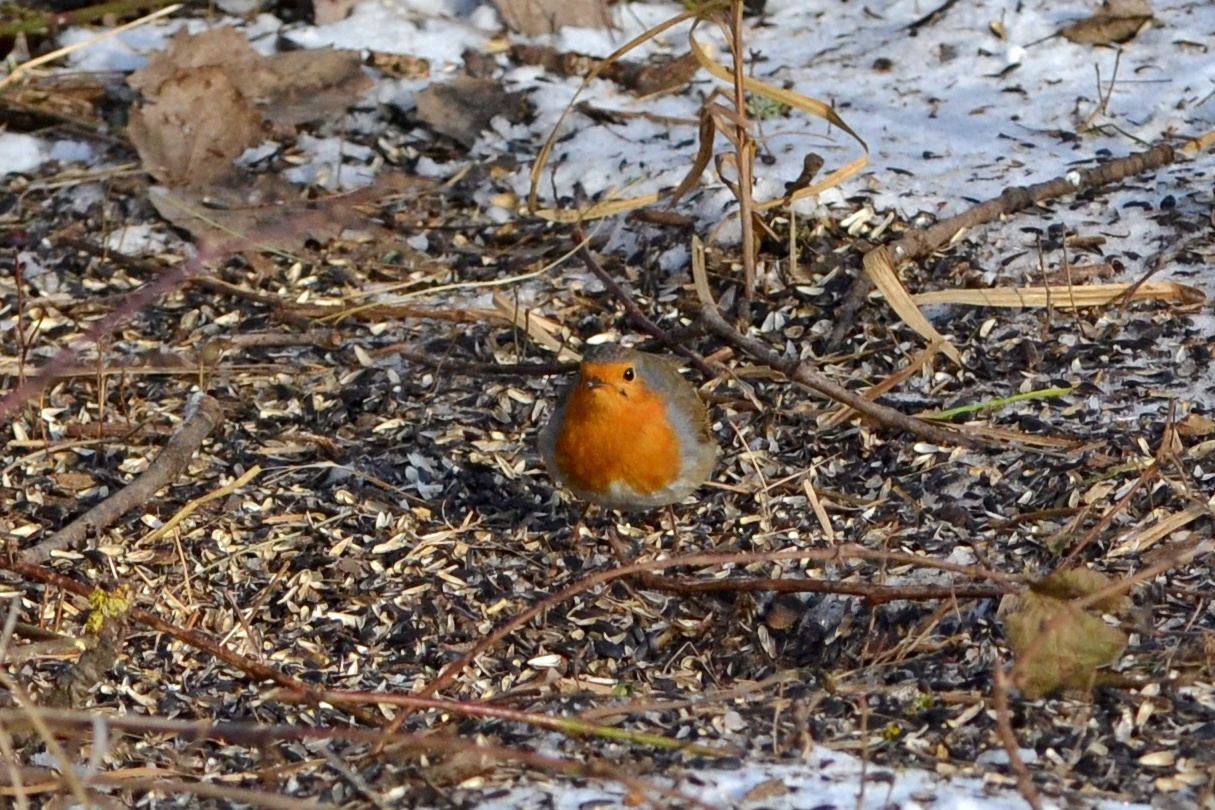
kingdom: Animalia
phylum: Chordata
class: Aves
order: Passeriformes
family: Muscicapidae
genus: Erithacus
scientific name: Erithacus rubecula
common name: European robin
